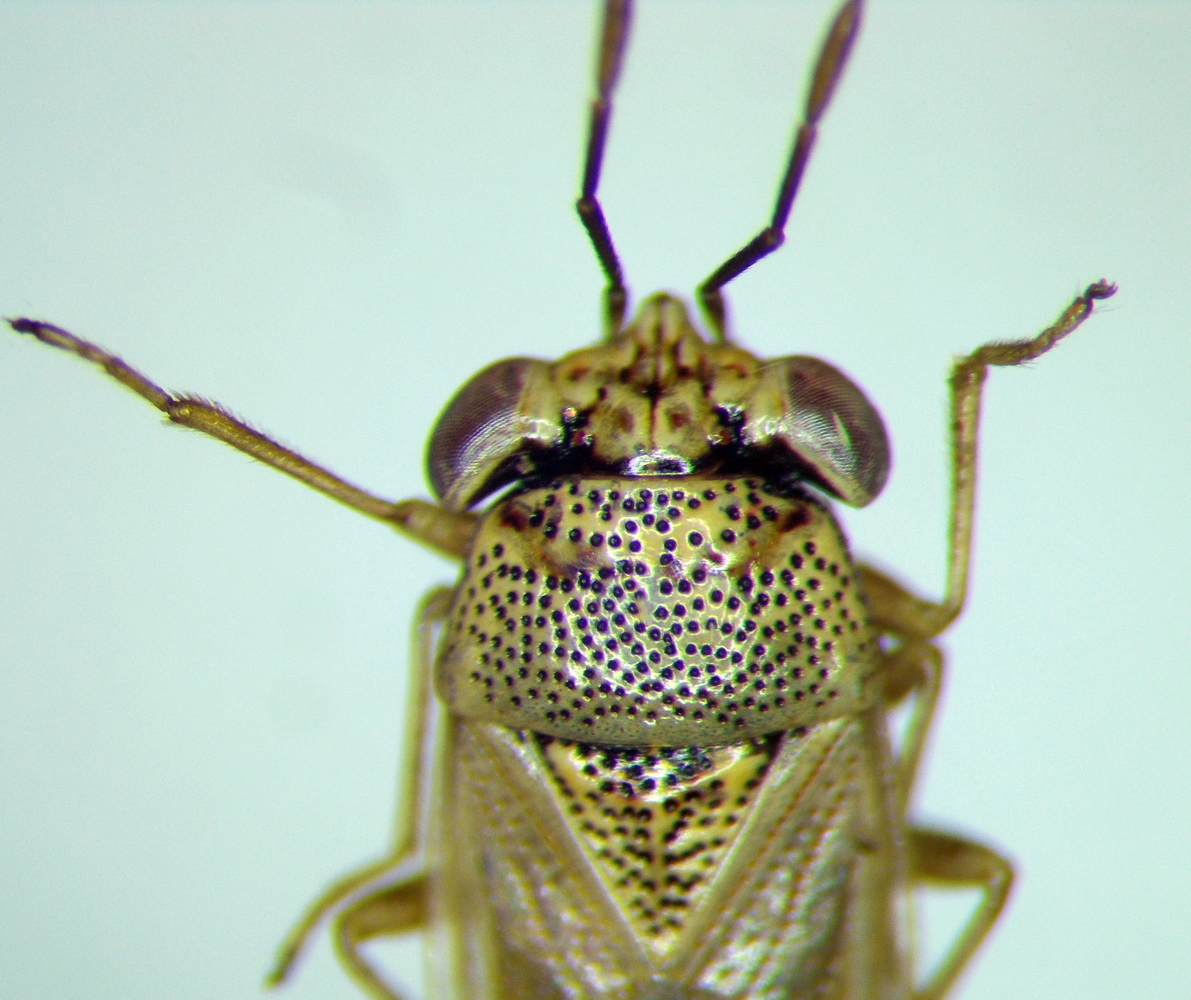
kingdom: Animalia
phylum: Arthropoda
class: Insecta
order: Hemiptera
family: Geocoridae
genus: Geocoris
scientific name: Geocoris punctipes
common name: Big-eyed bug
